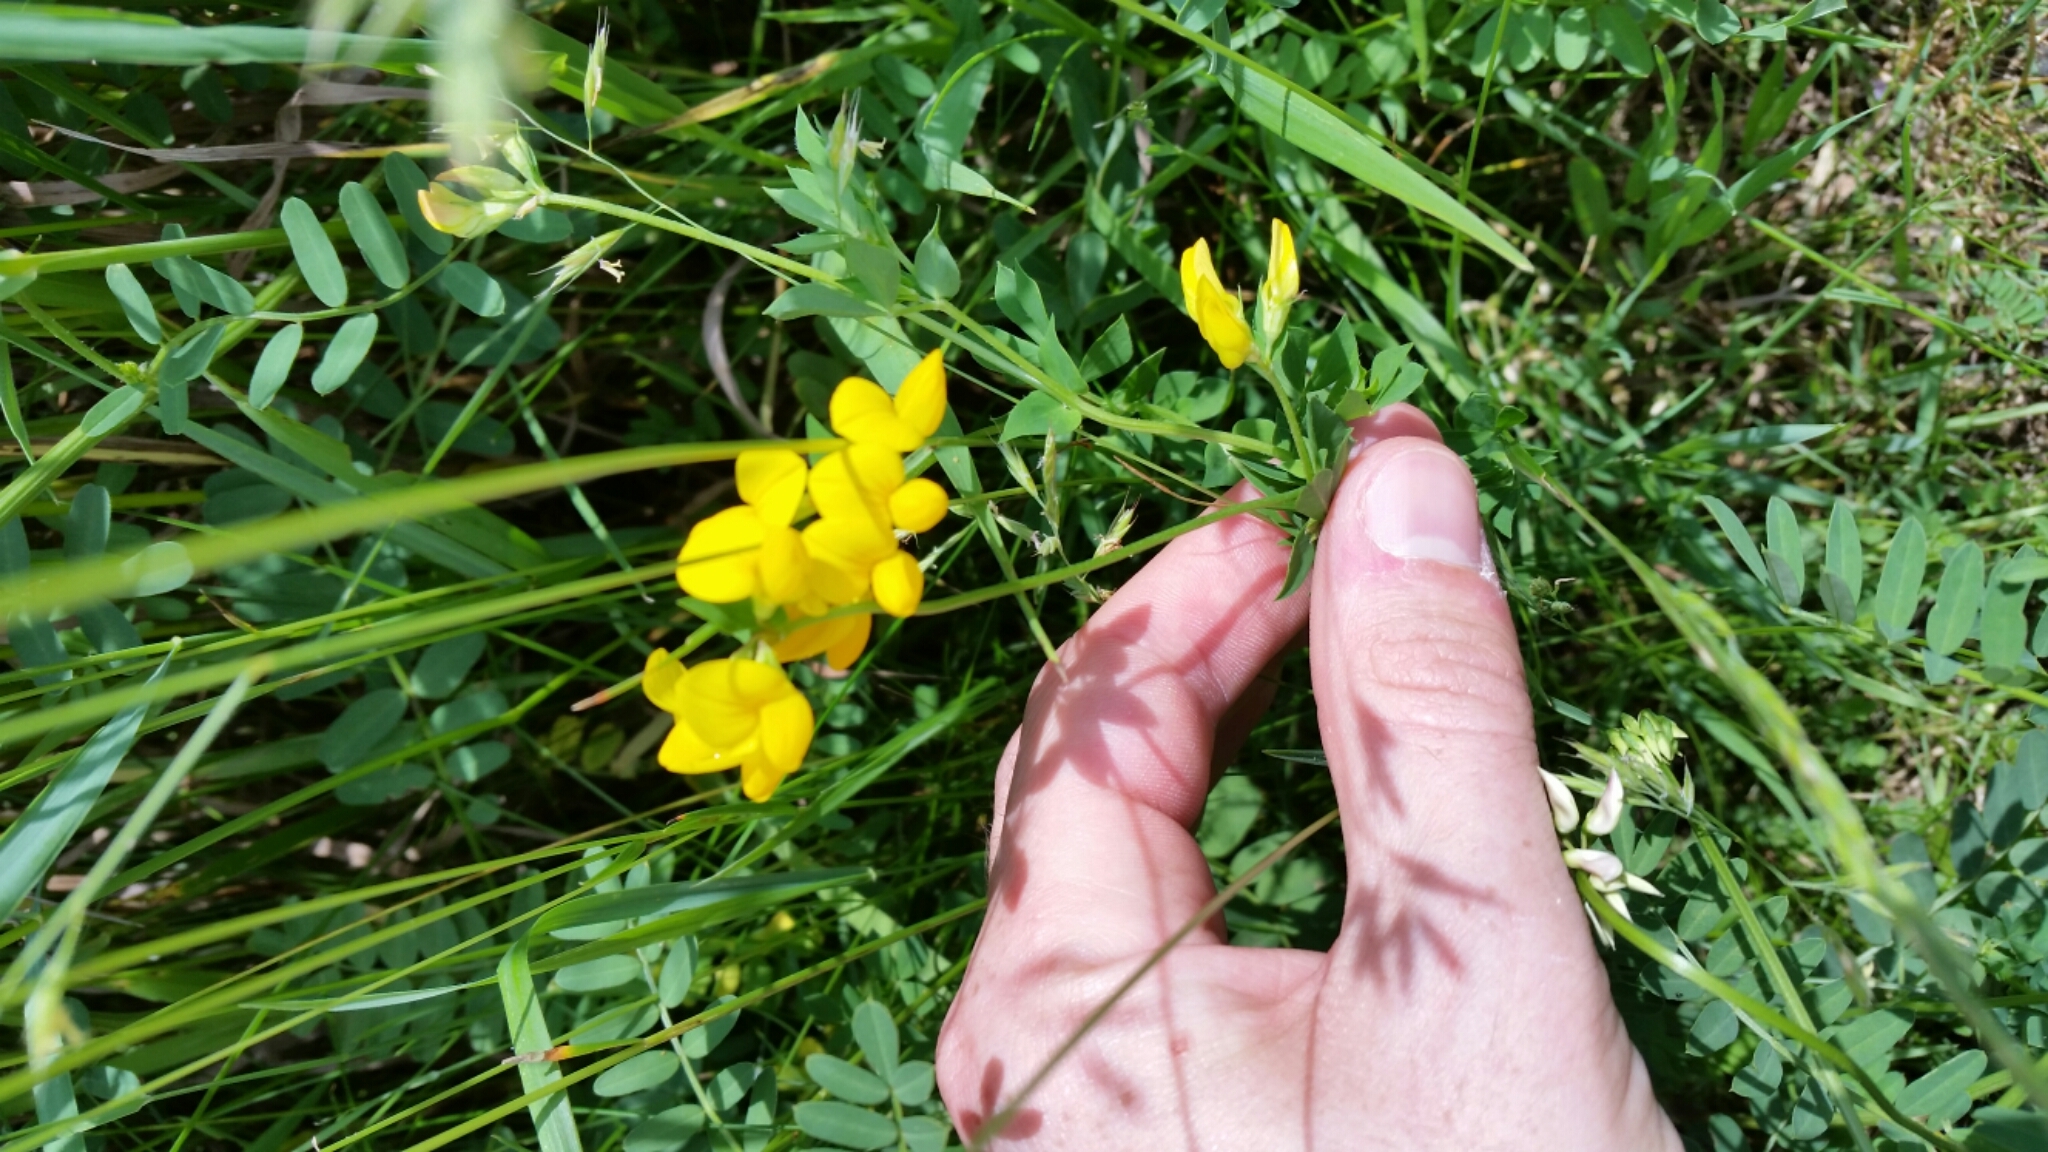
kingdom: Plantae
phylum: Tracheophyta
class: Magnoliopsida
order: Fabales
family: Fabaceae
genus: Lotus
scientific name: Lotus corniculatus
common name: Common bird's-foot-trefoil
